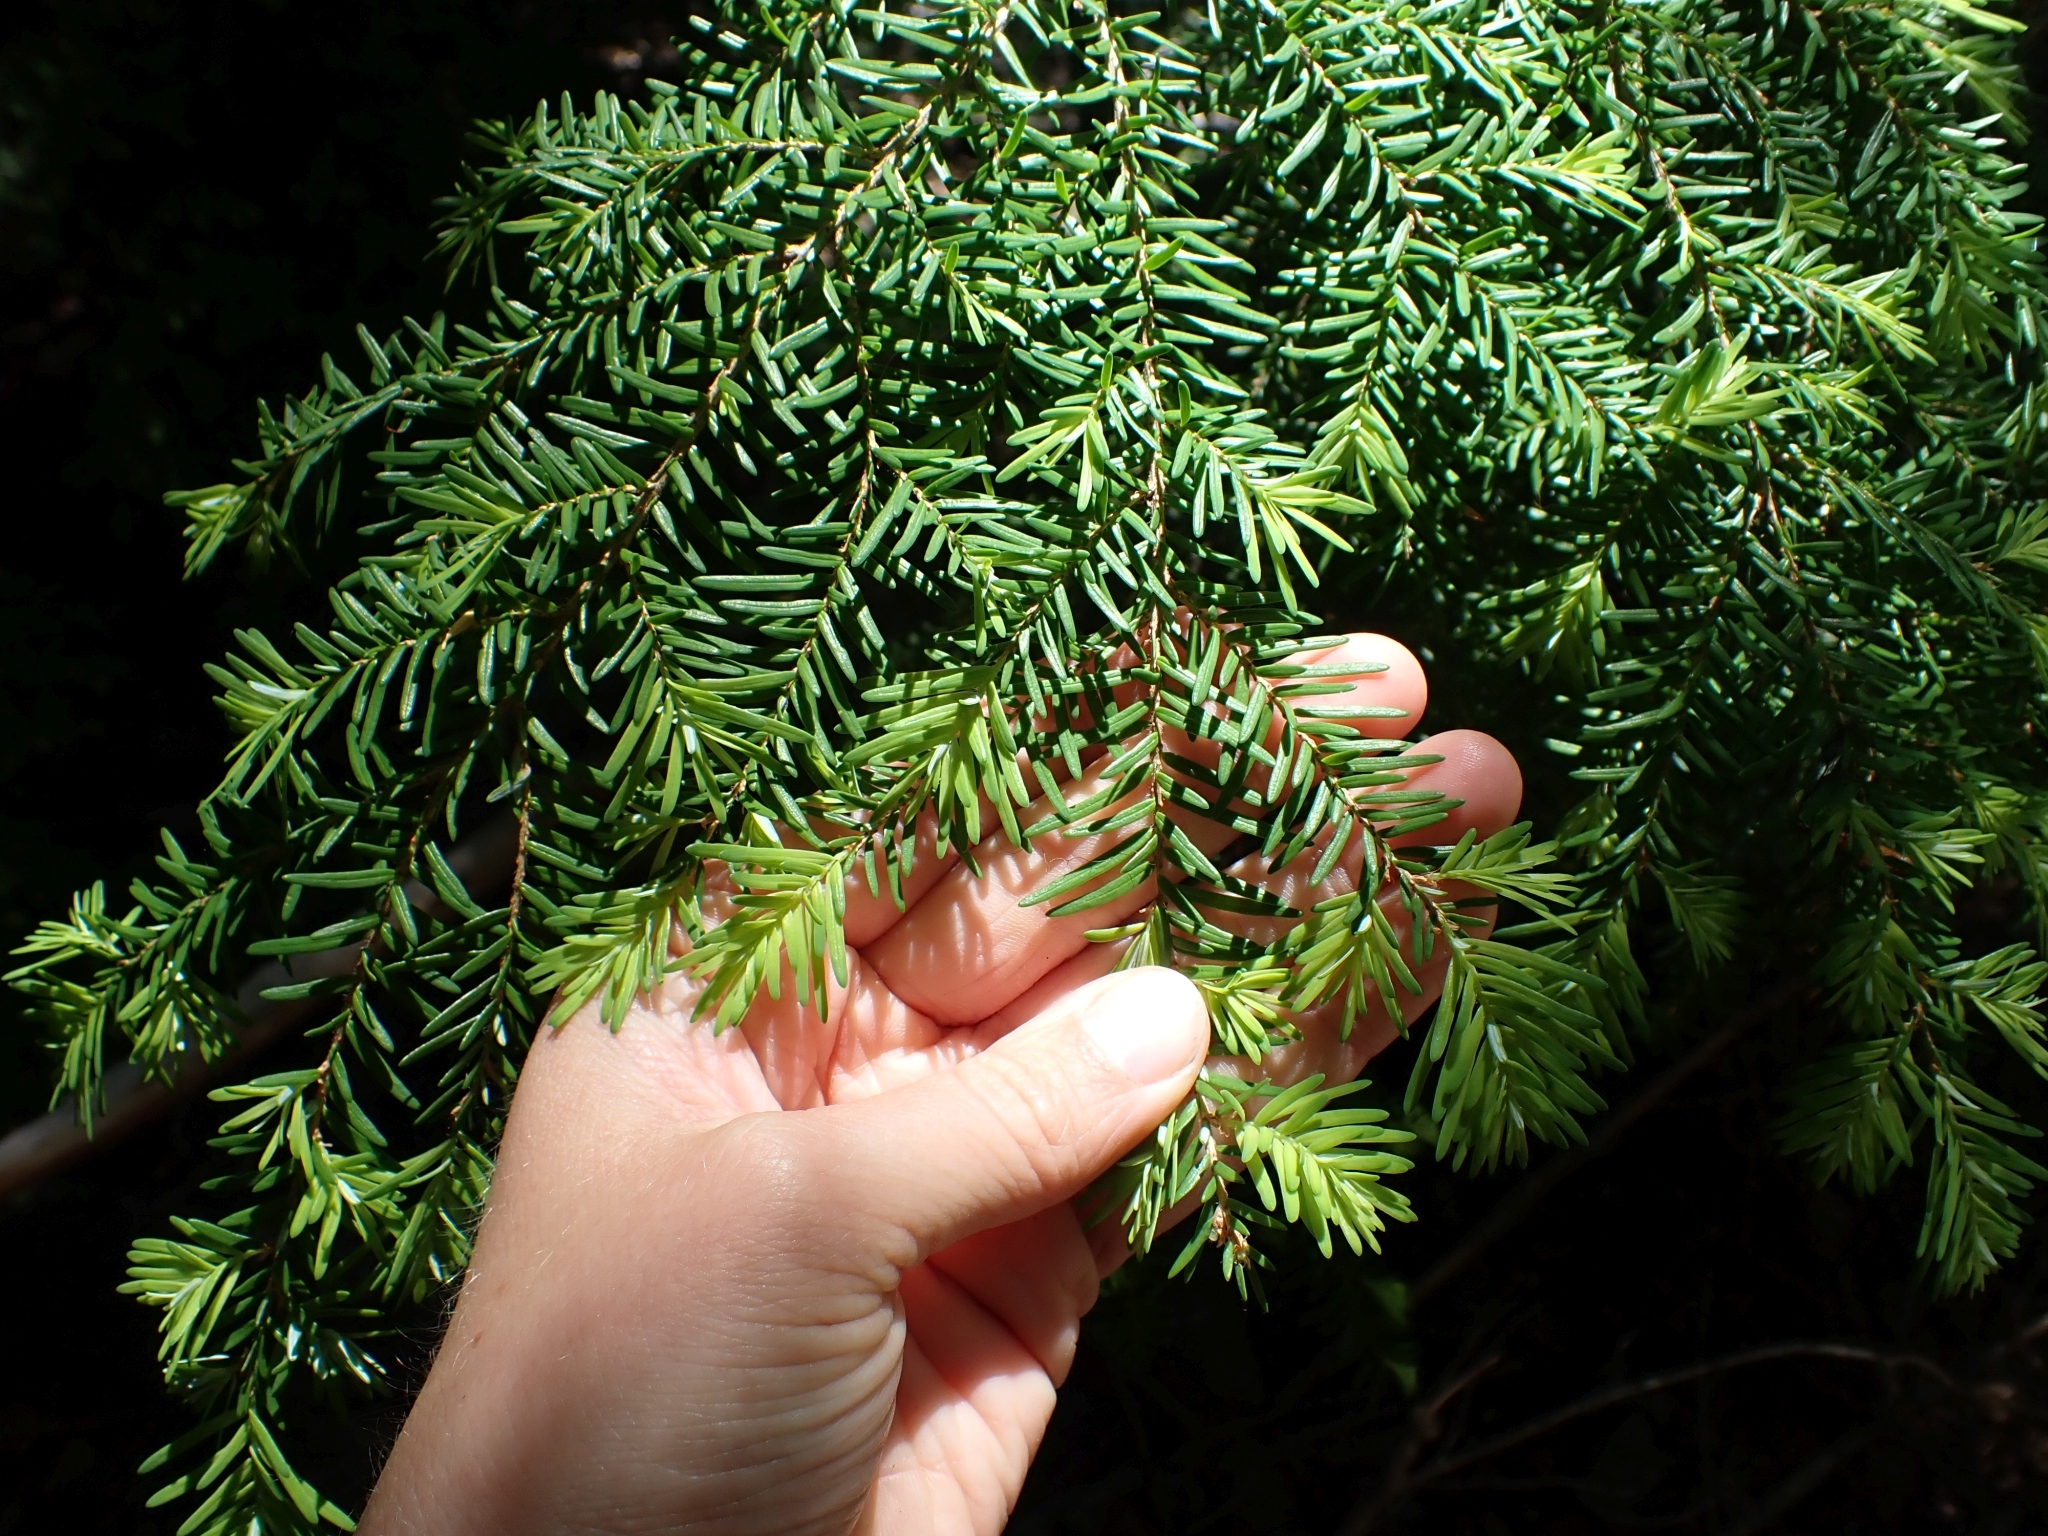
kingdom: Plantae
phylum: Tracheophyta
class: Pinopsida
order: Pinales
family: Pinaceae
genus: Tsuga
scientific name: Tsuga heterophylla
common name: Western hemlock
